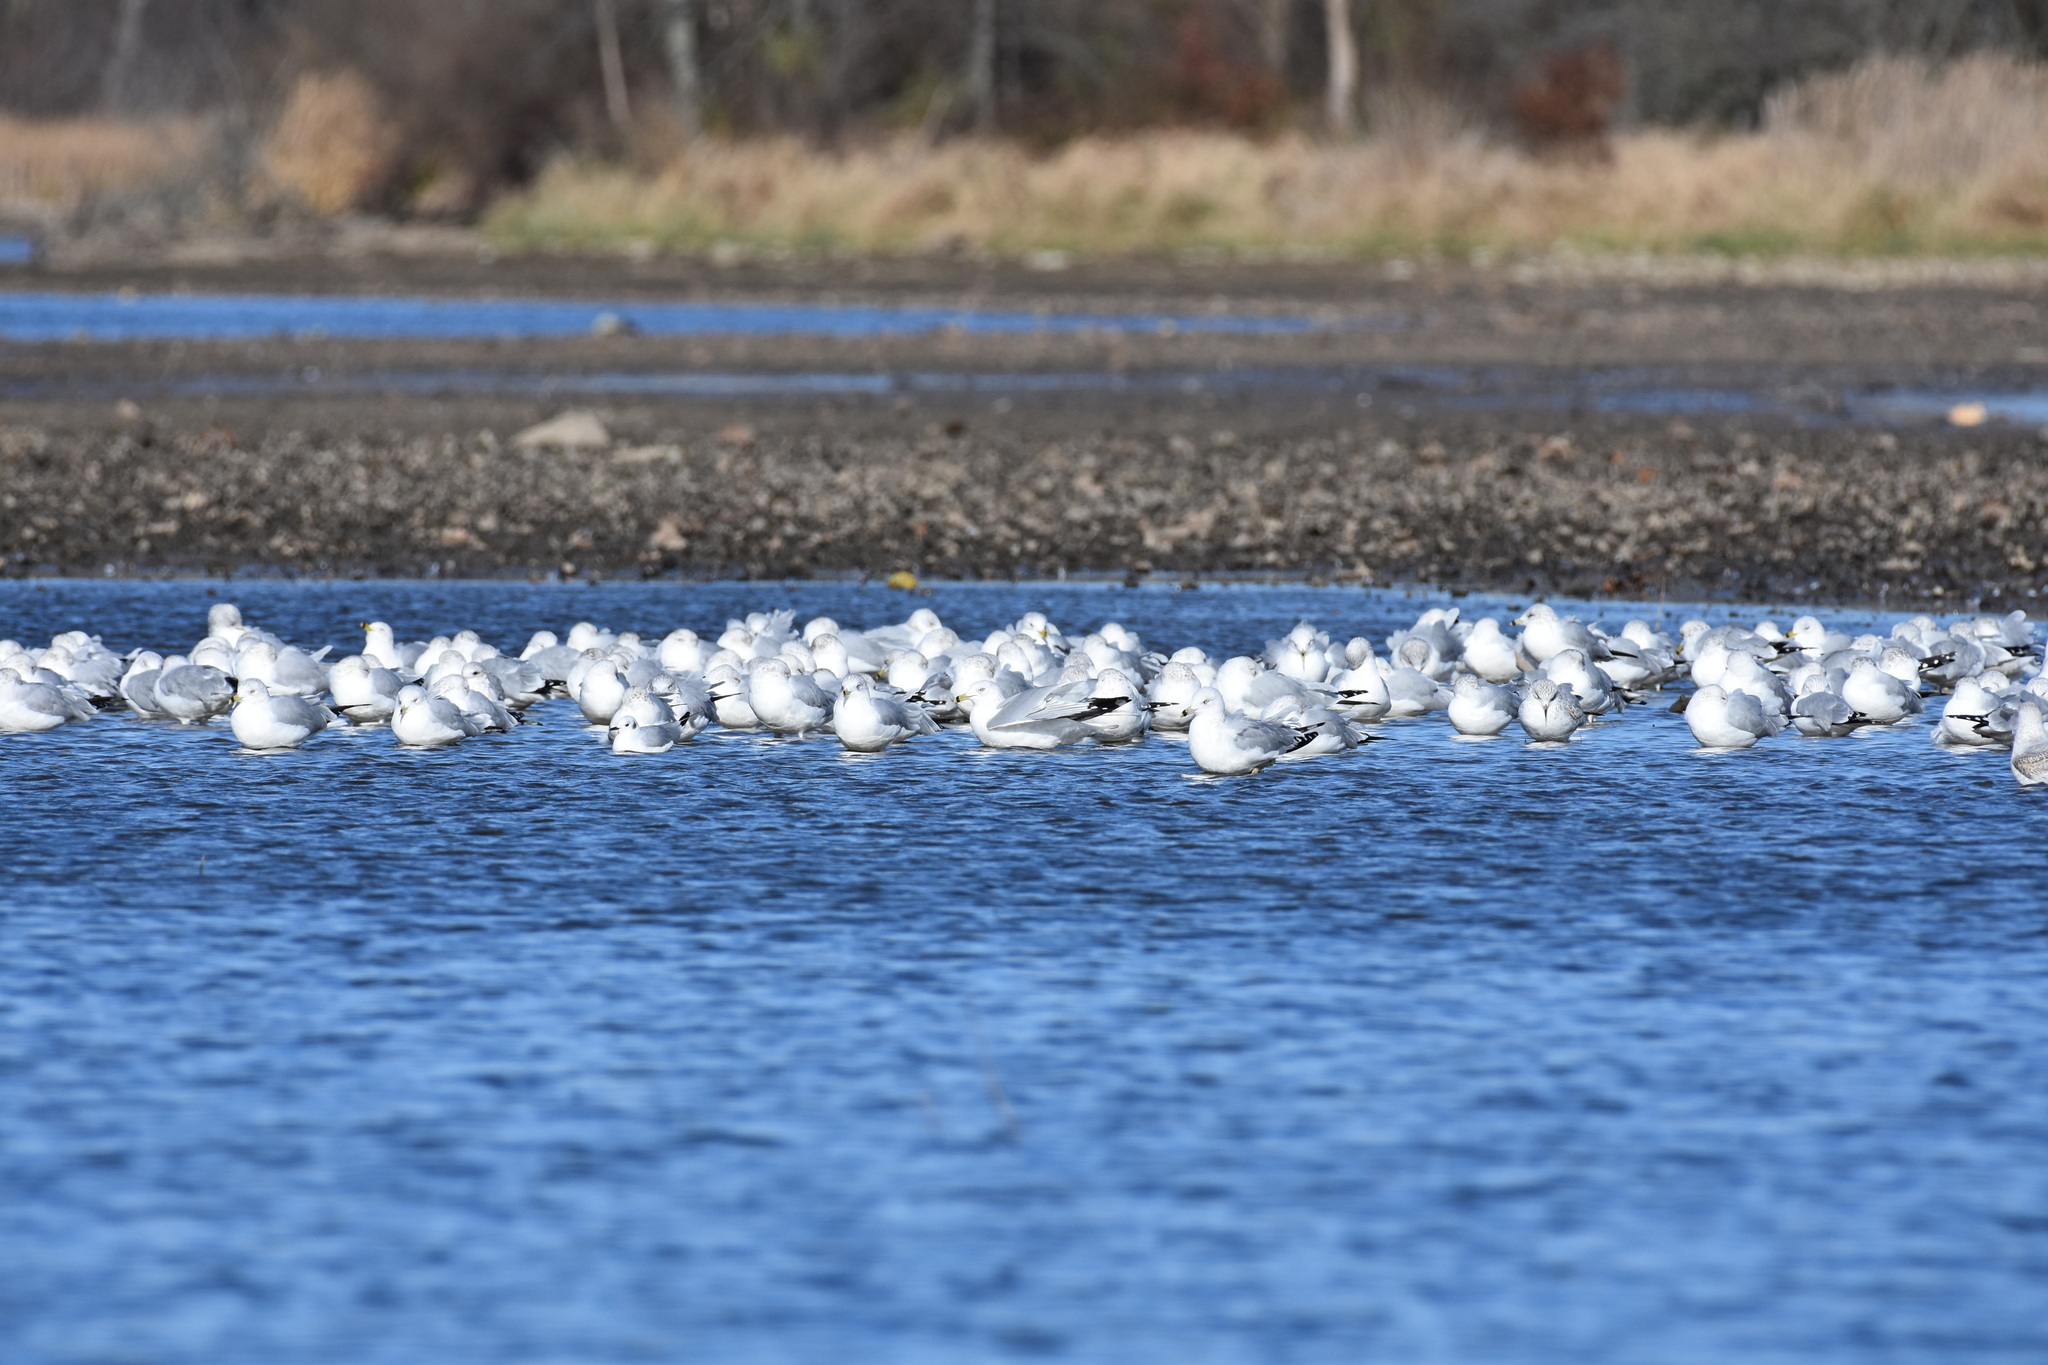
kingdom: Animalia
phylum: Chordata
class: Aves
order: Charadriiformes
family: Laridae
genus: Larus
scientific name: Larus delawarensis
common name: Ring-billed gull
